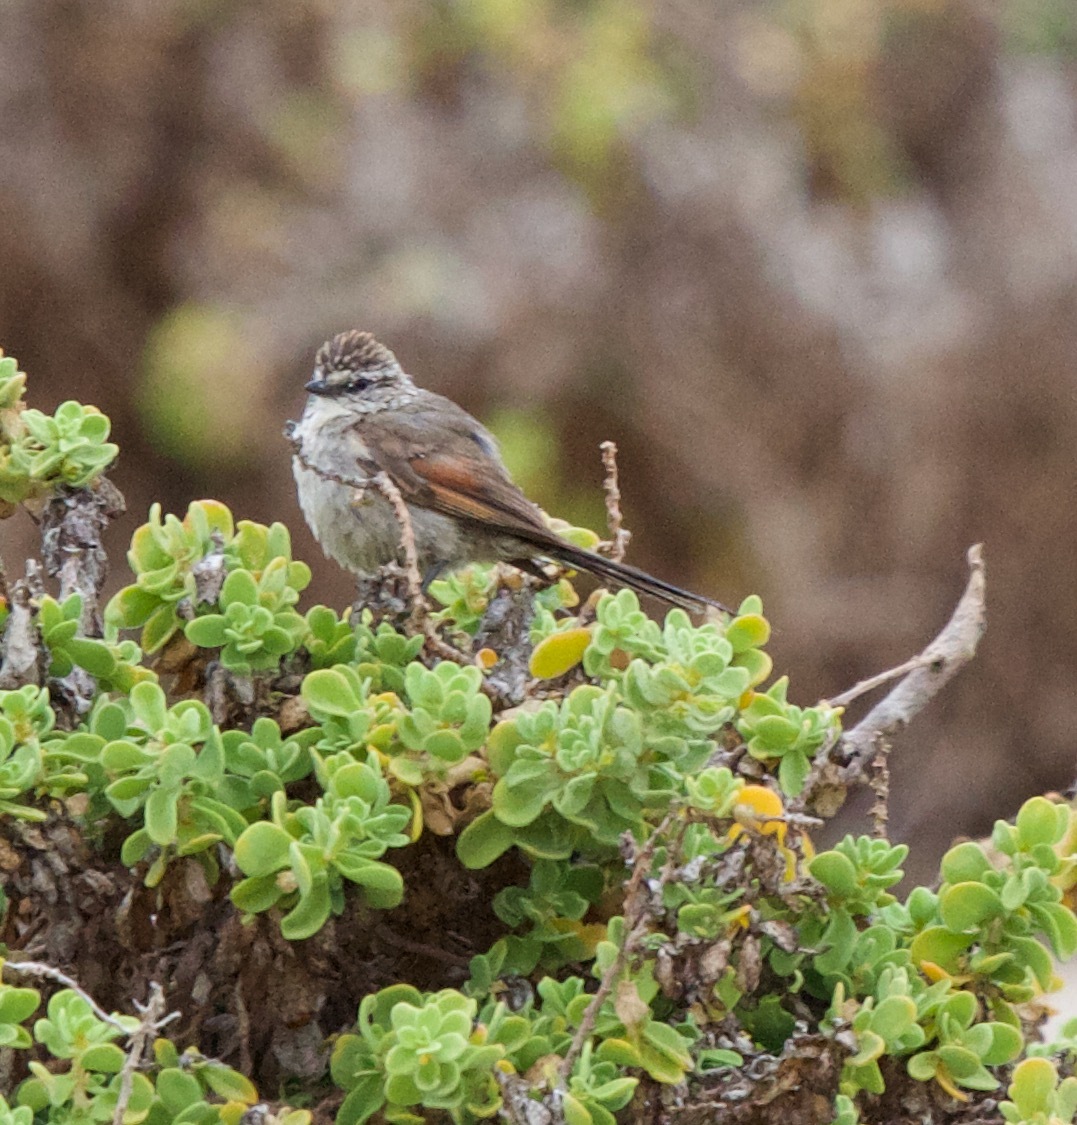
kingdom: Animalia
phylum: Chordata
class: Aves
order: Passeriformes
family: Furnariidae
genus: Leptasthenura
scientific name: Leptasthenura aegithaloides
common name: Plain-mantled tit-spinetail
